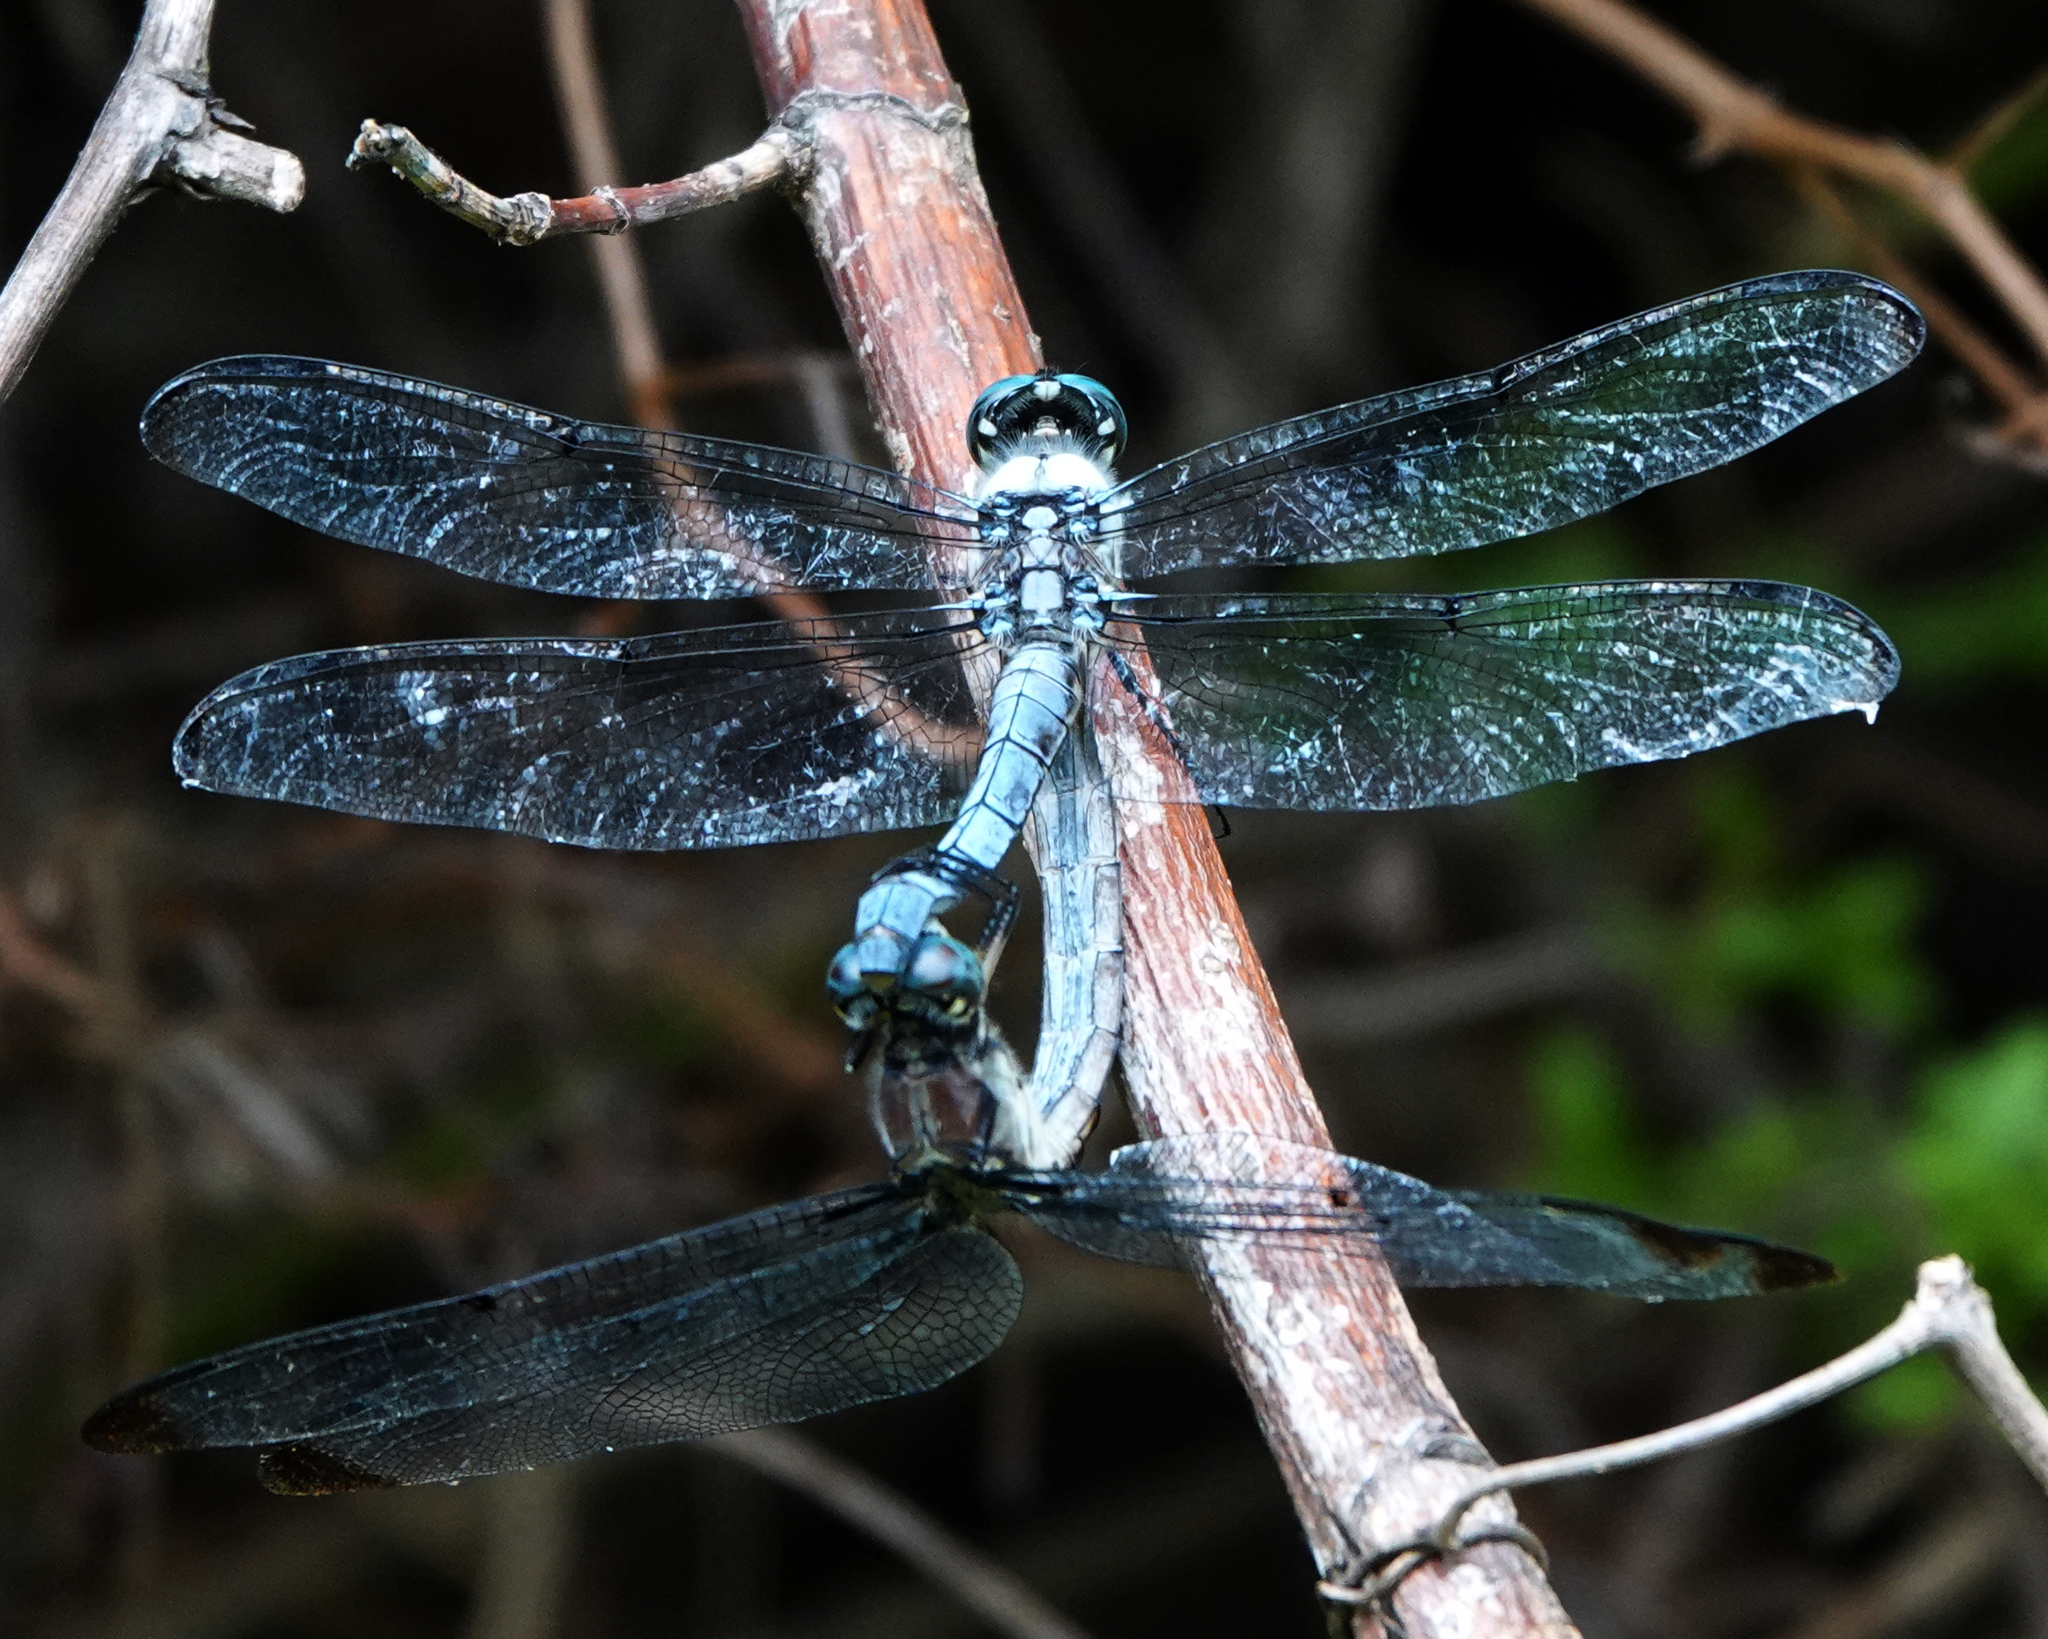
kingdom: Animalia
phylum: Arthropoda
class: Insecta
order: Odonata
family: Libellulidae
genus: Libellula
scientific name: Libellula vibrans
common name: Great blue skimmer
